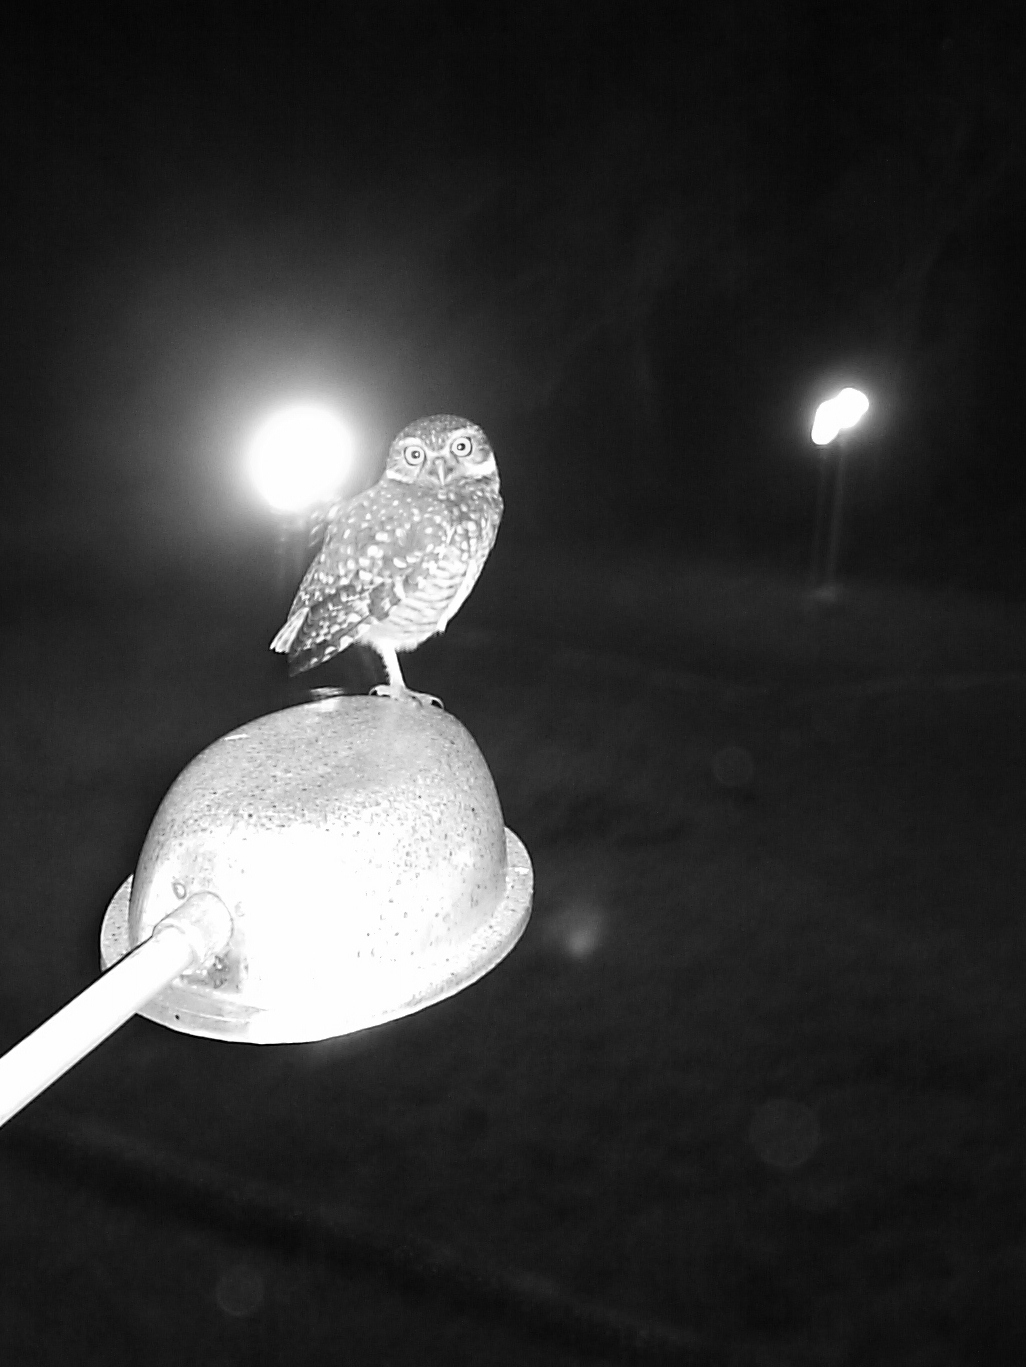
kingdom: Animalia
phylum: Chordata
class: Aves
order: Strigiformes
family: Strigidae
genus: Athene
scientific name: Athene cunicularia
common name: Burrowing owl
